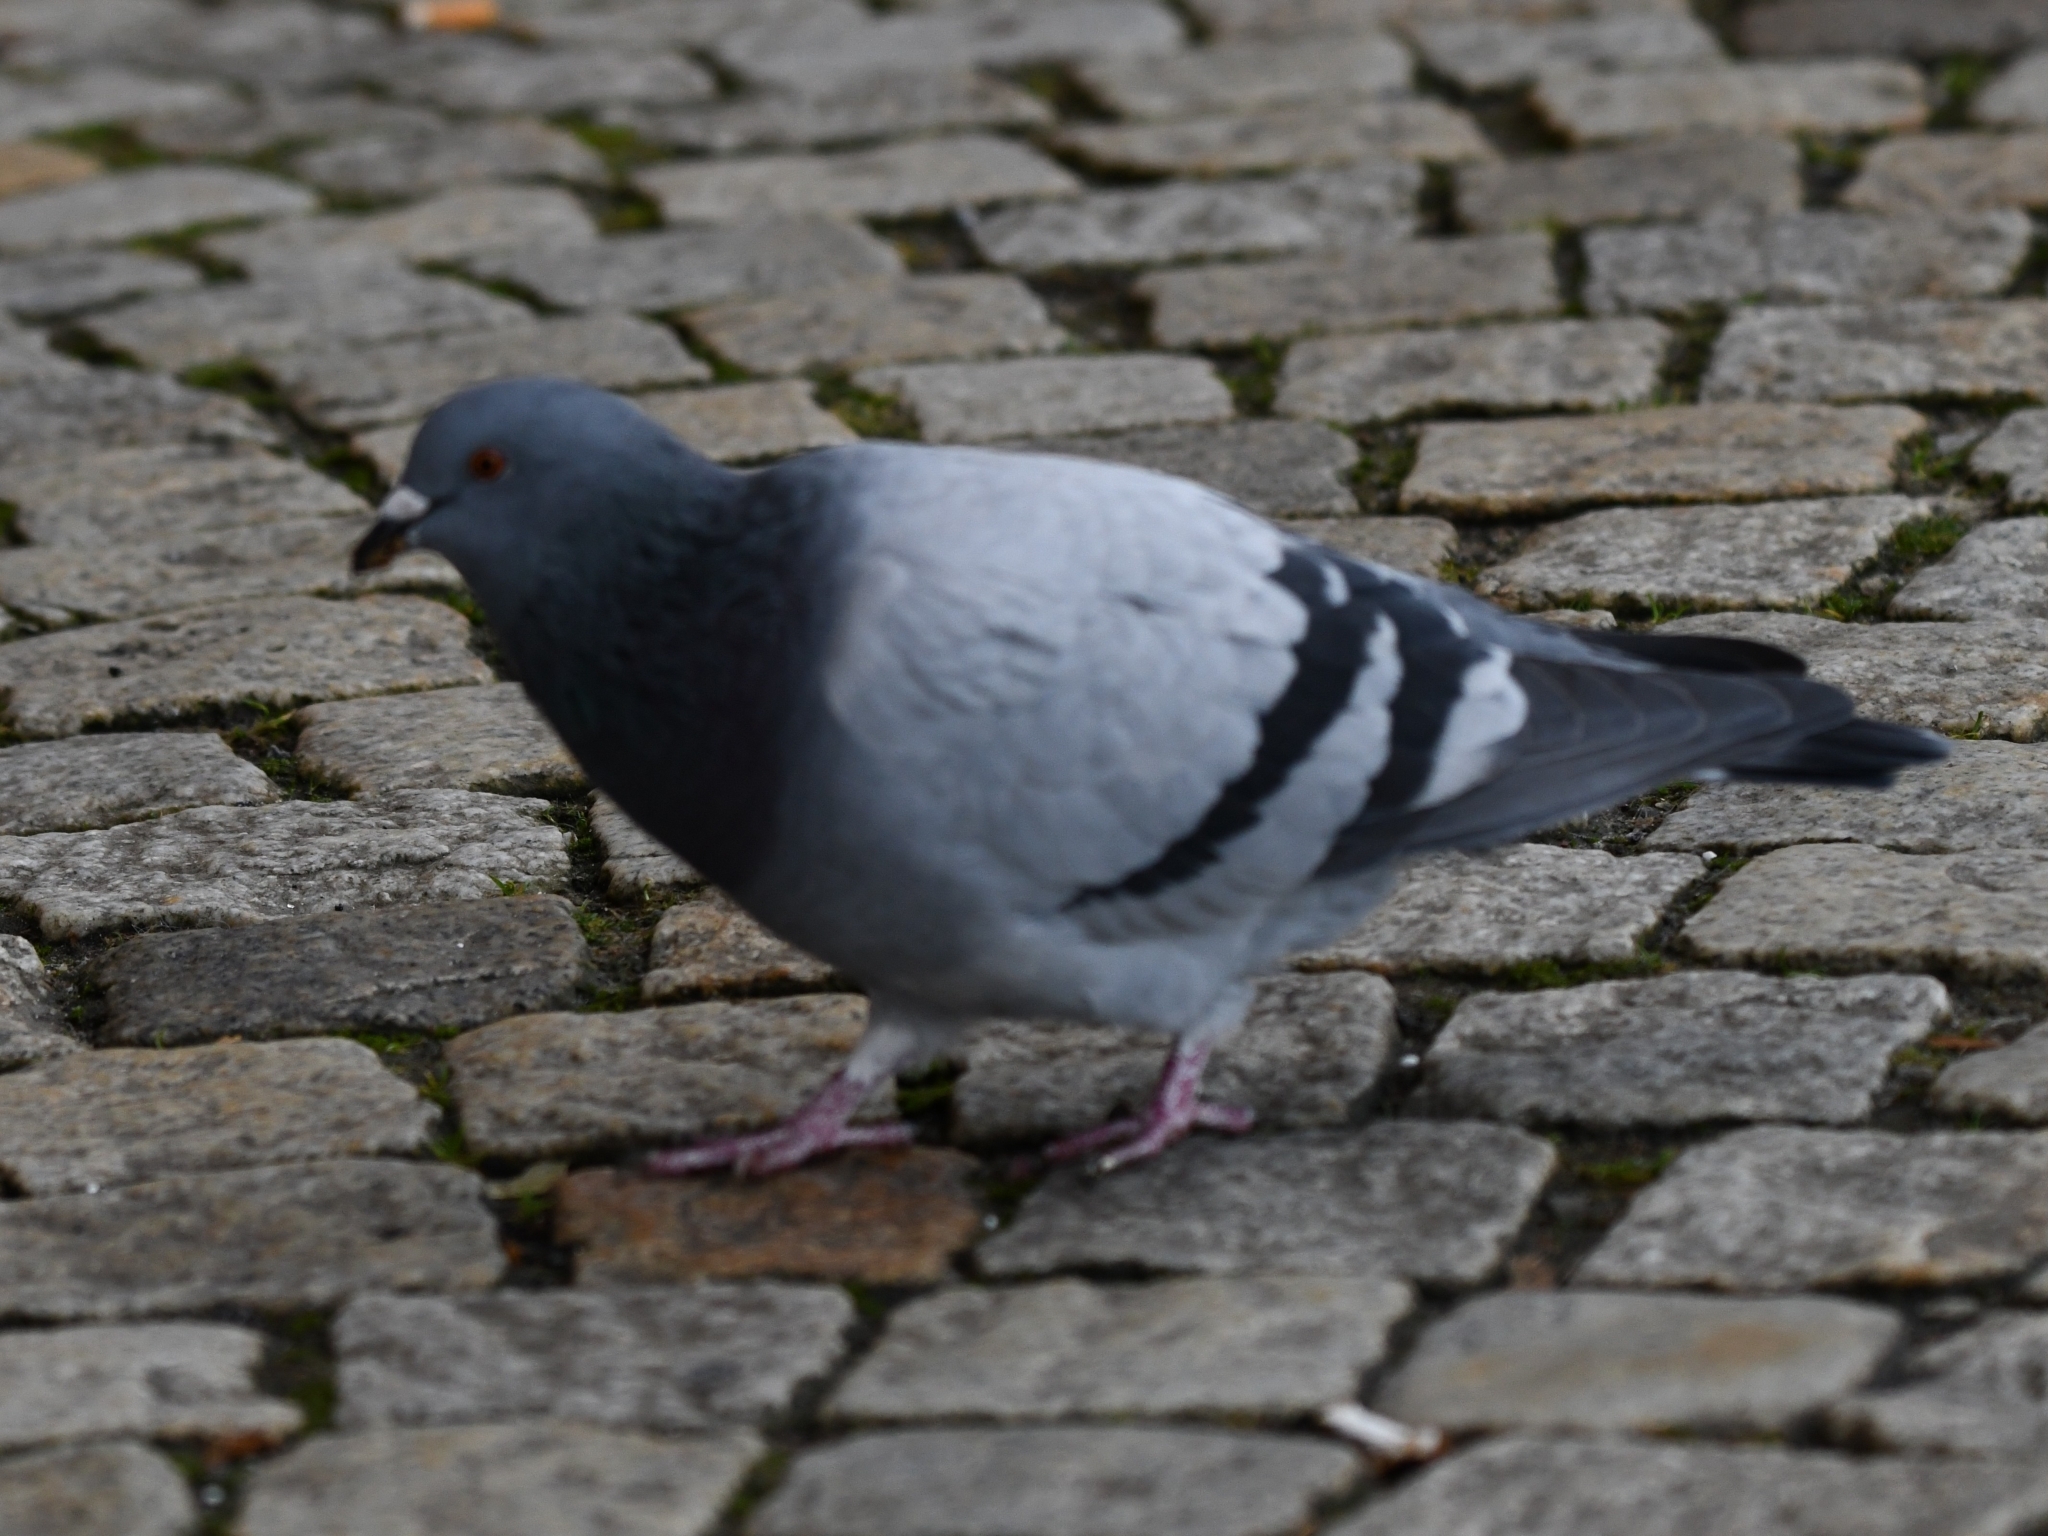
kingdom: Animalia
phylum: Chordata
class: Aves
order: Columbiformes
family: Columbidae
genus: Columba
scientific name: Columba livia
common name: Rock pigeon
